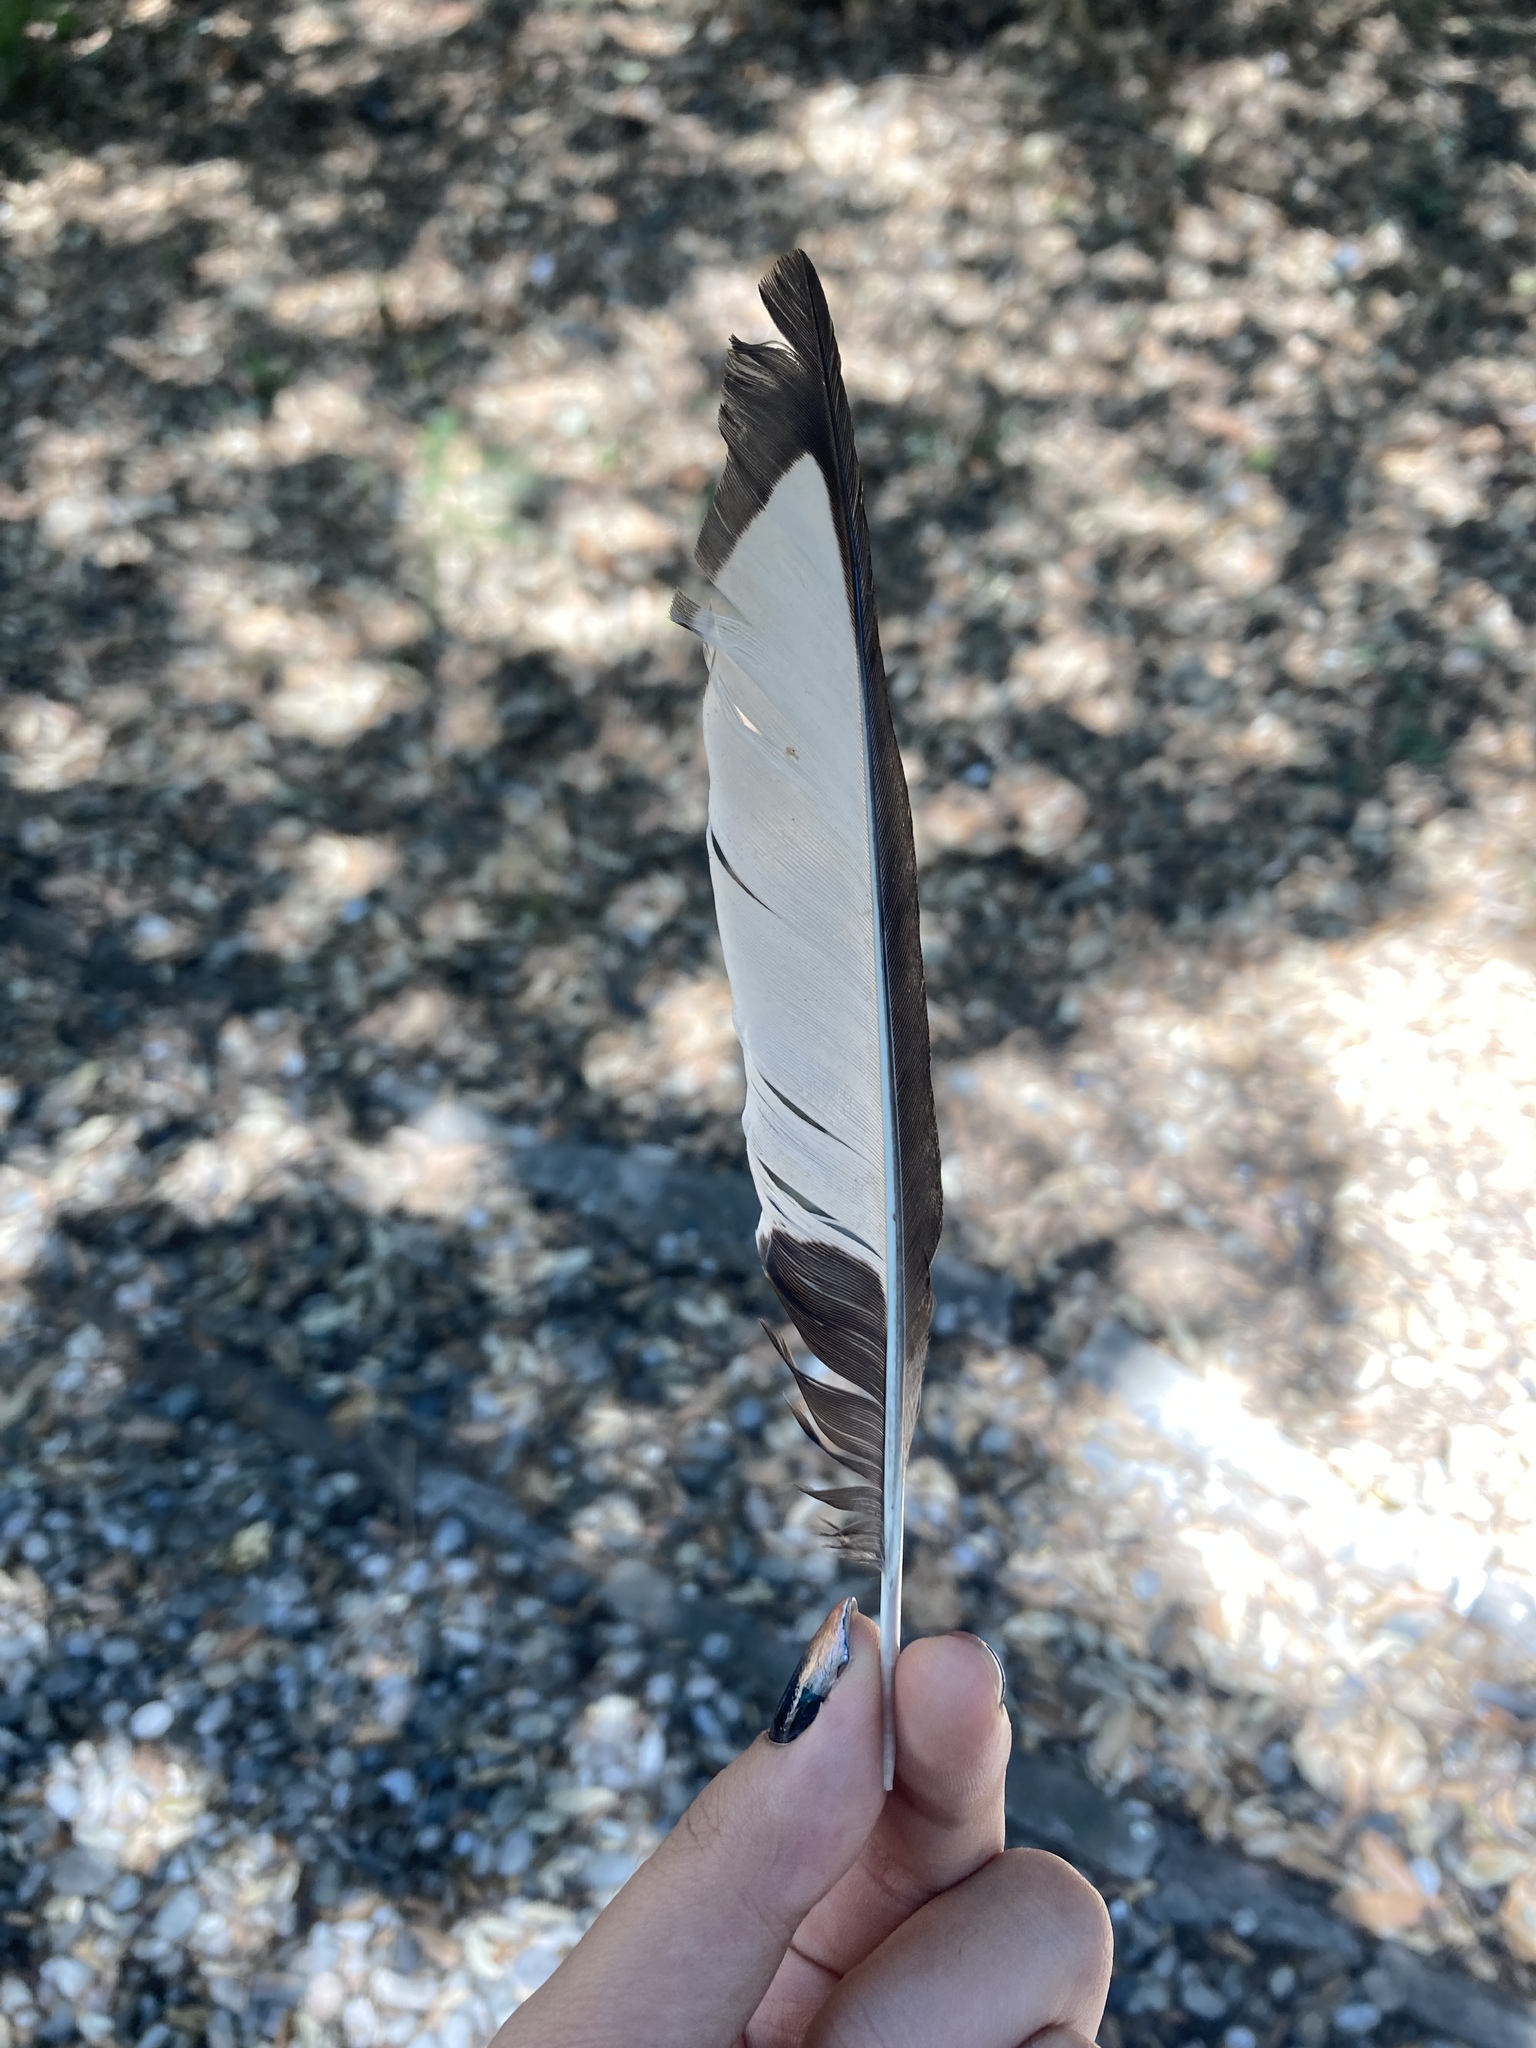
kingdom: Animalia
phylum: Chordata
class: Aves
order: Passeriformes
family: Corvidae
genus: Pica
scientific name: Pica pica
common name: Eurasian magpie
